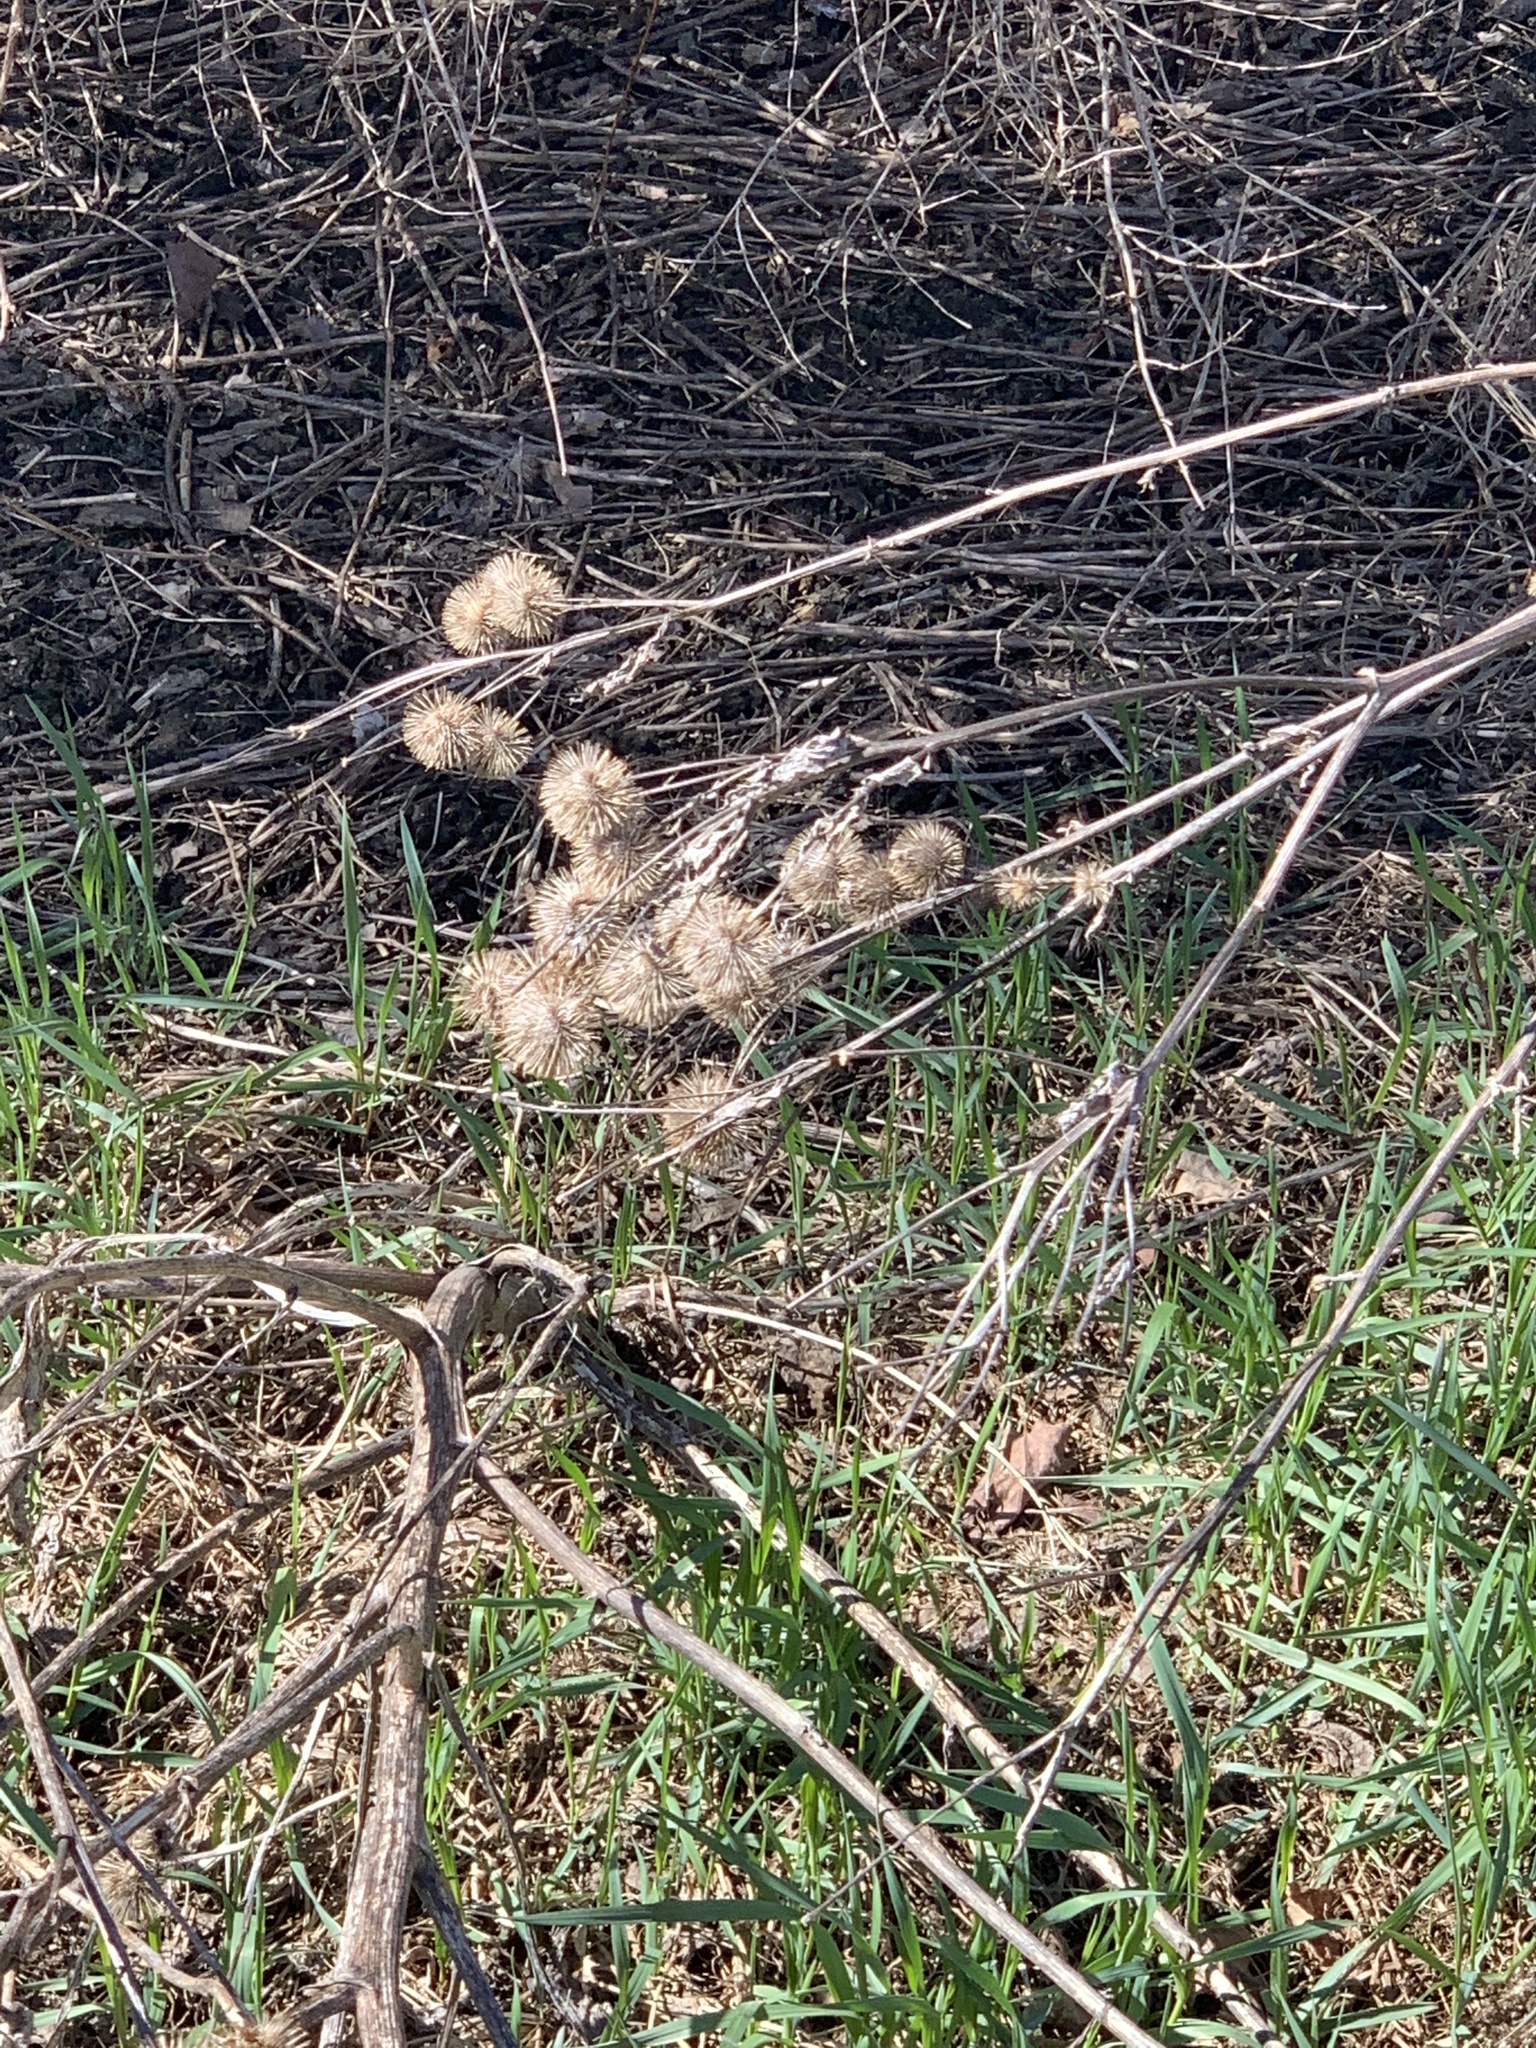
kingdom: Plantae
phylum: Tracheophyta
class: Magnoliopsida
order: Asterales
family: Asteraceae
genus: Arctium
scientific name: Arctium lappa
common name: Greater burdock
